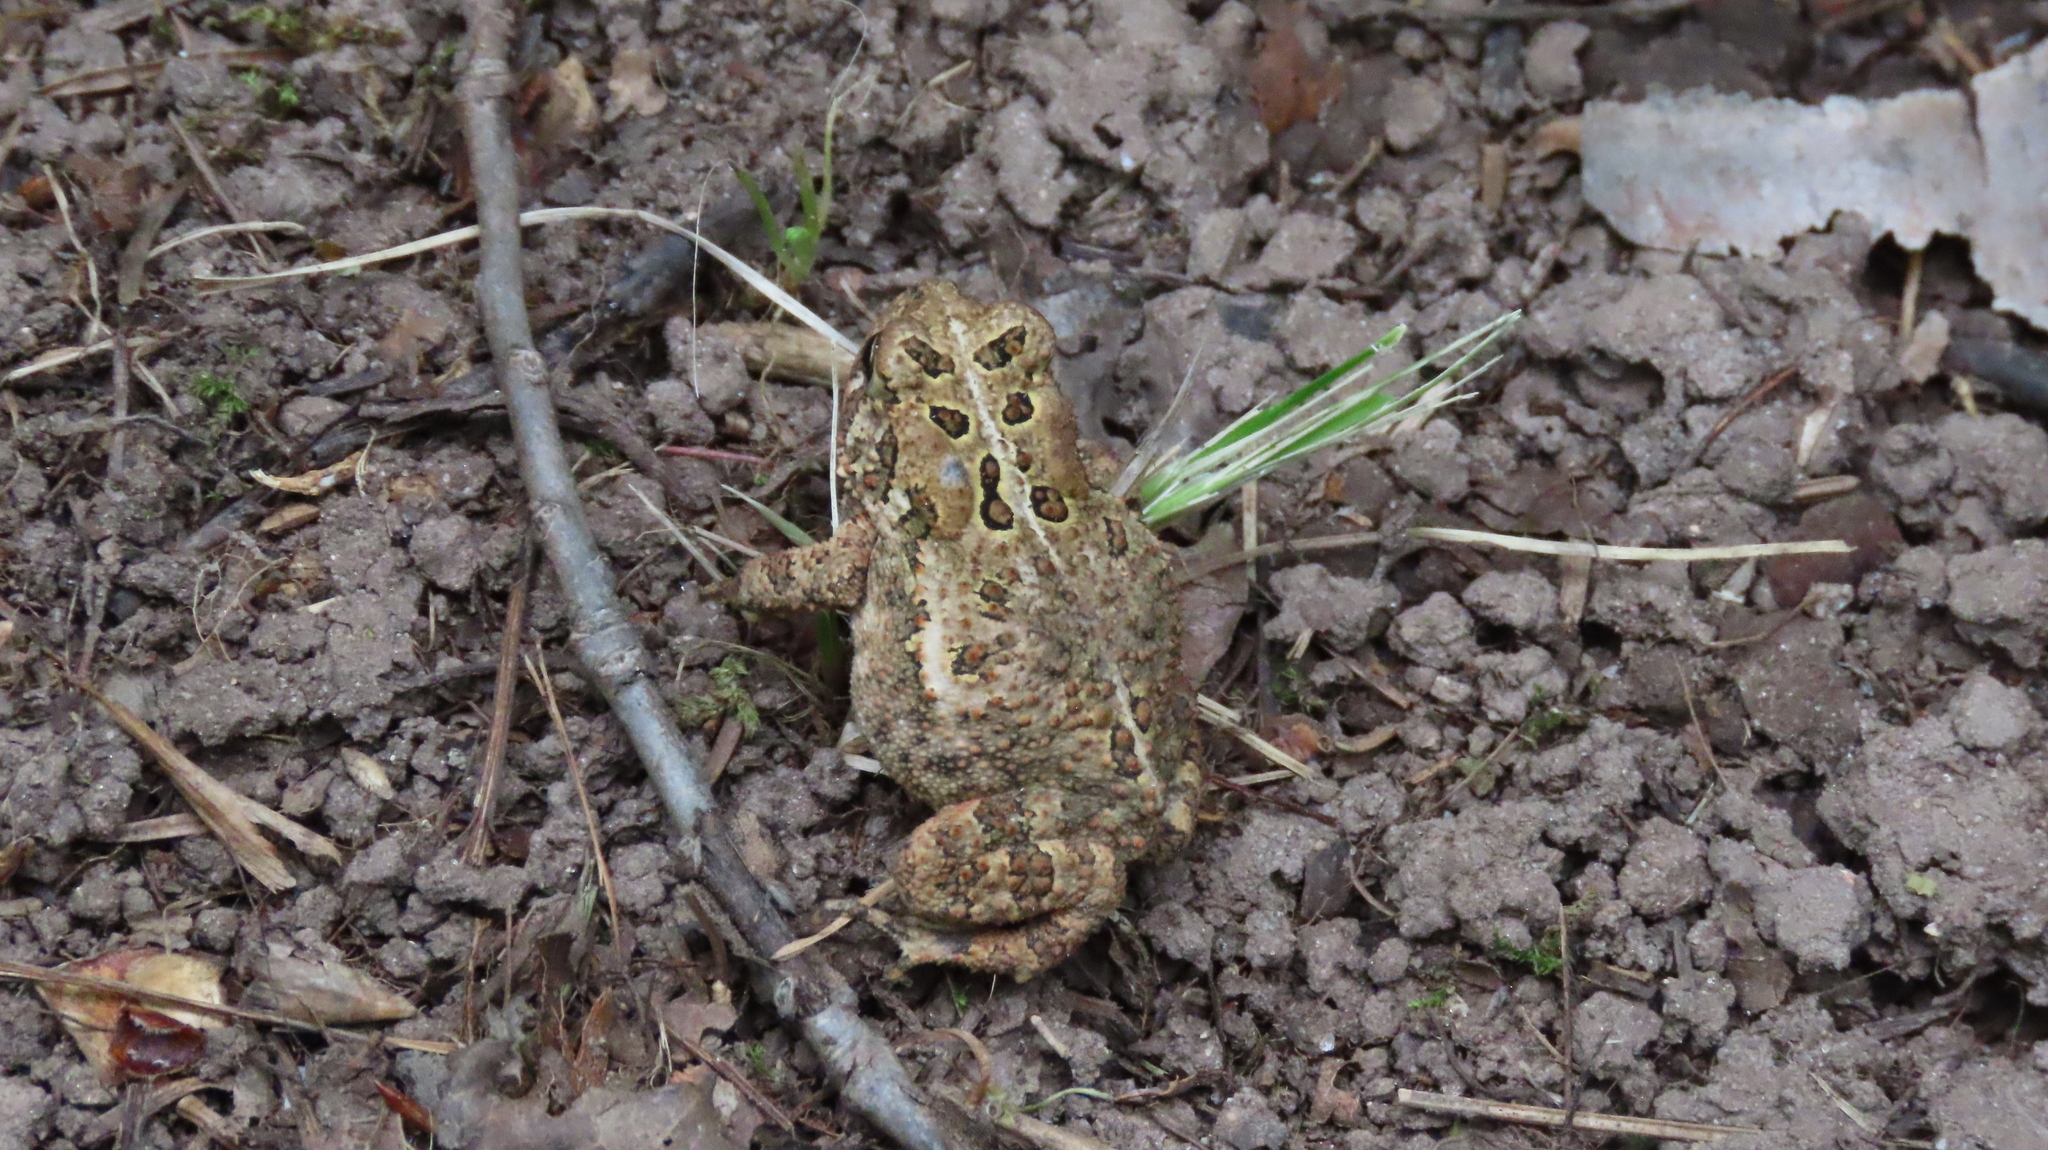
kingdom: Animalia
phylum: Chordata
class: Amphibia
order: Anura
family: Bufonidae
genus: Anaxyrus
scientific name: Anaxyrus americanus
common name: American toad
